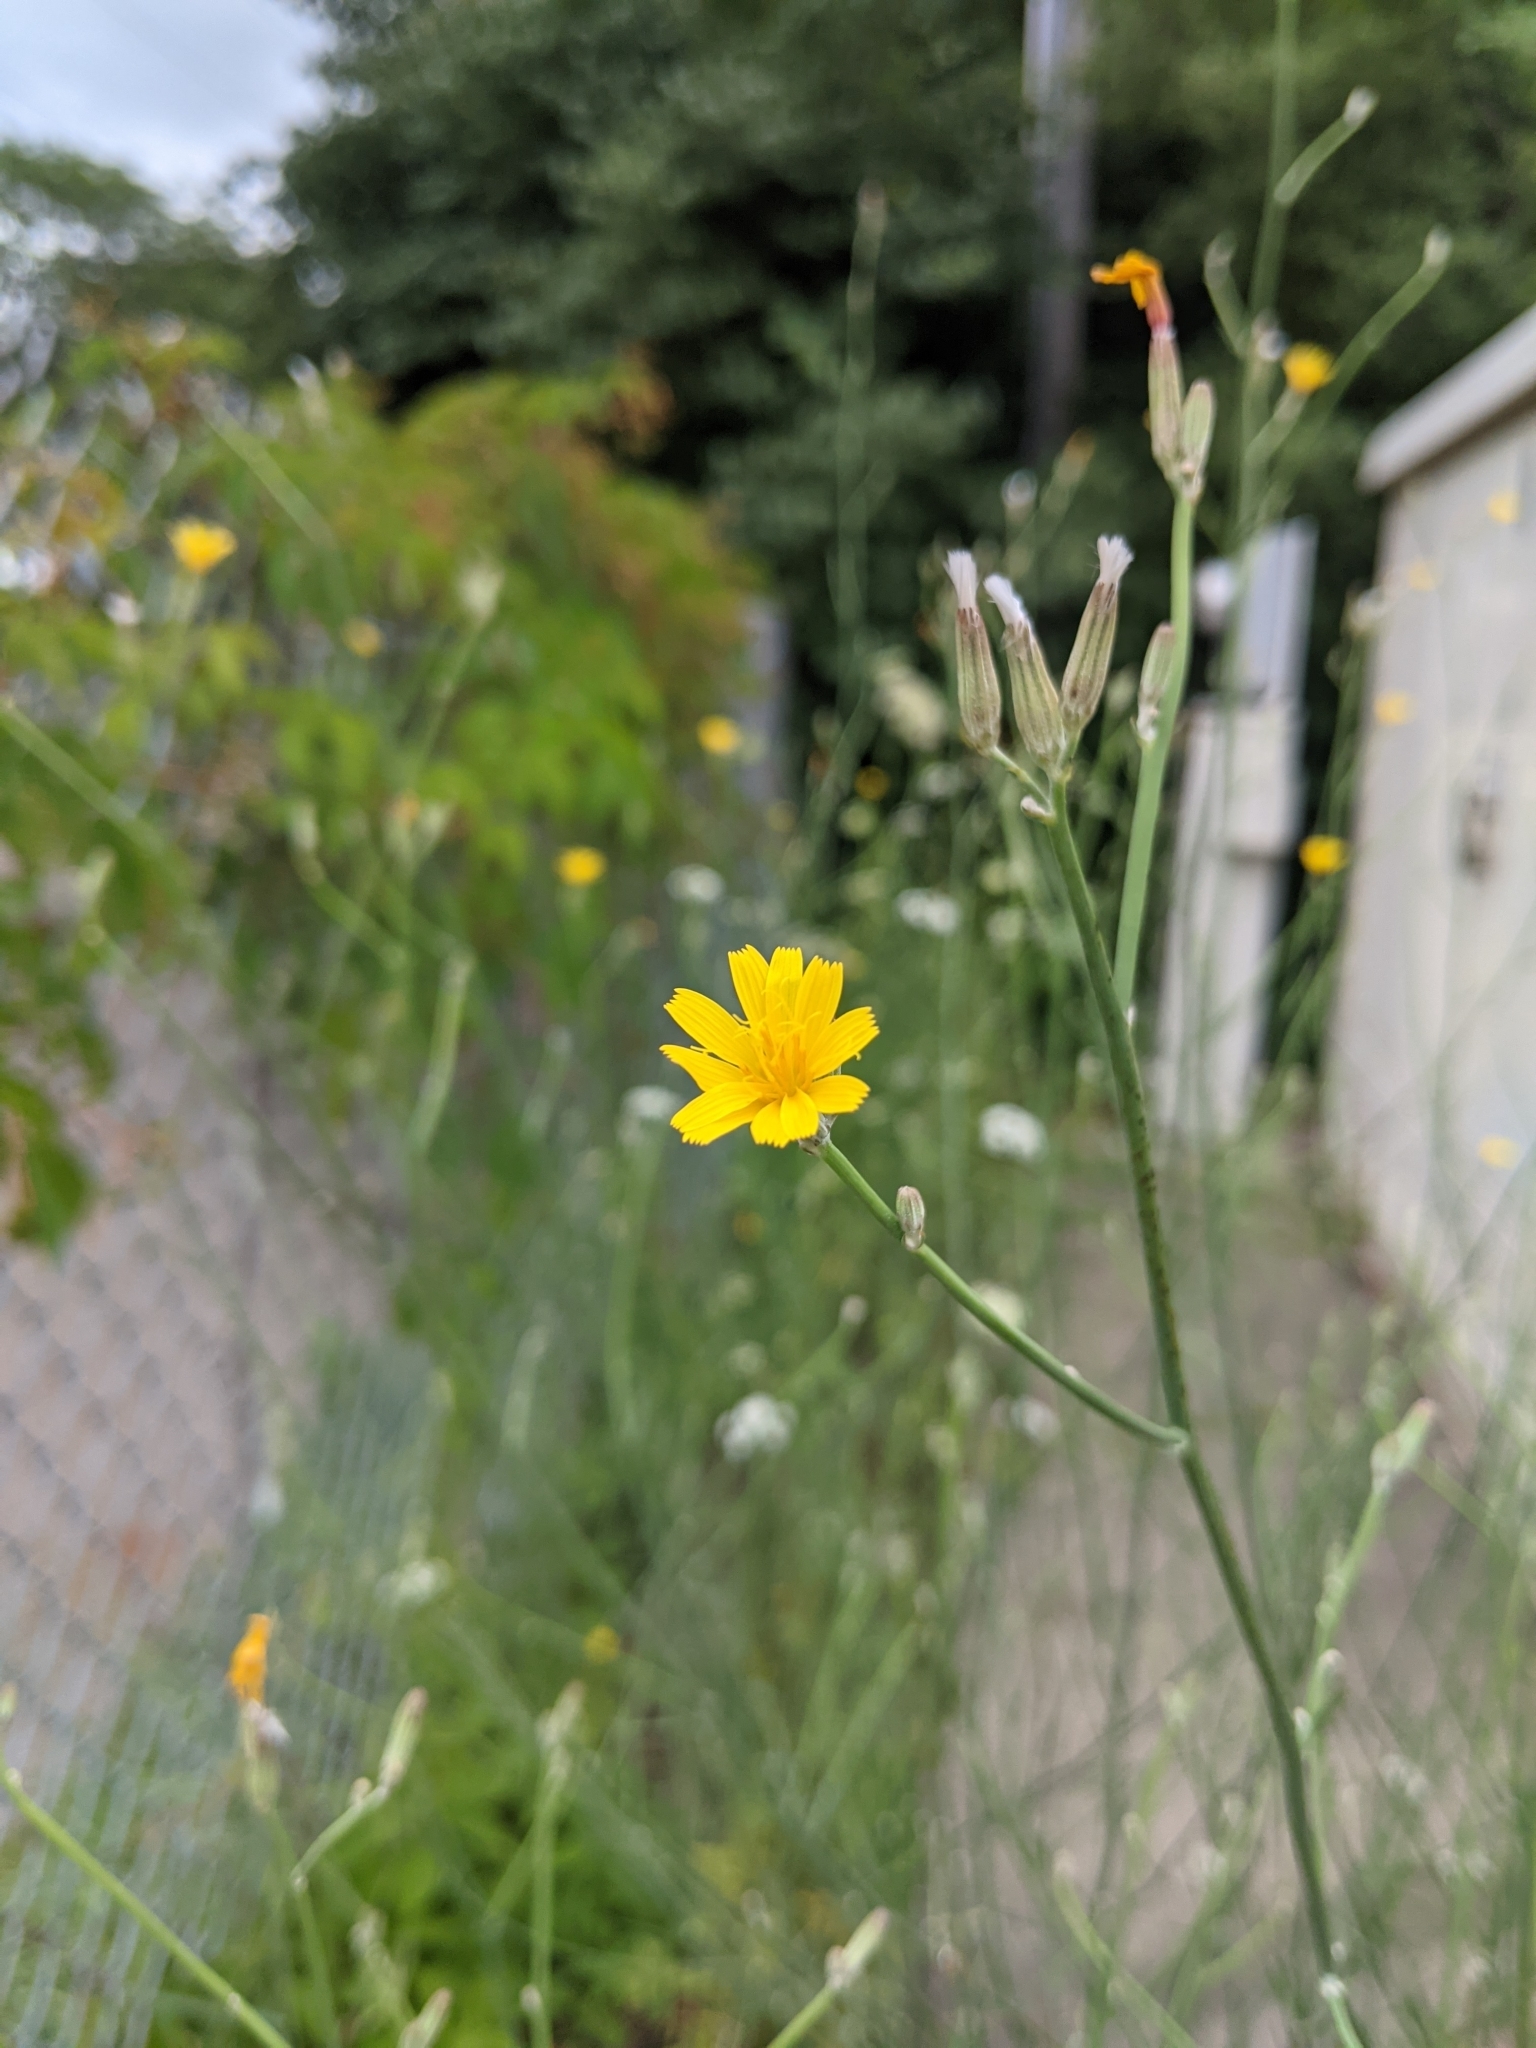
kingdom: Plantae
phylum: Tracheophyta
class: Magnoliopsida
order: Asterales
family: Asteraceae
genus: Chondrilla
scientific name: Chondrilla juncea
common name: Skeleton weed
